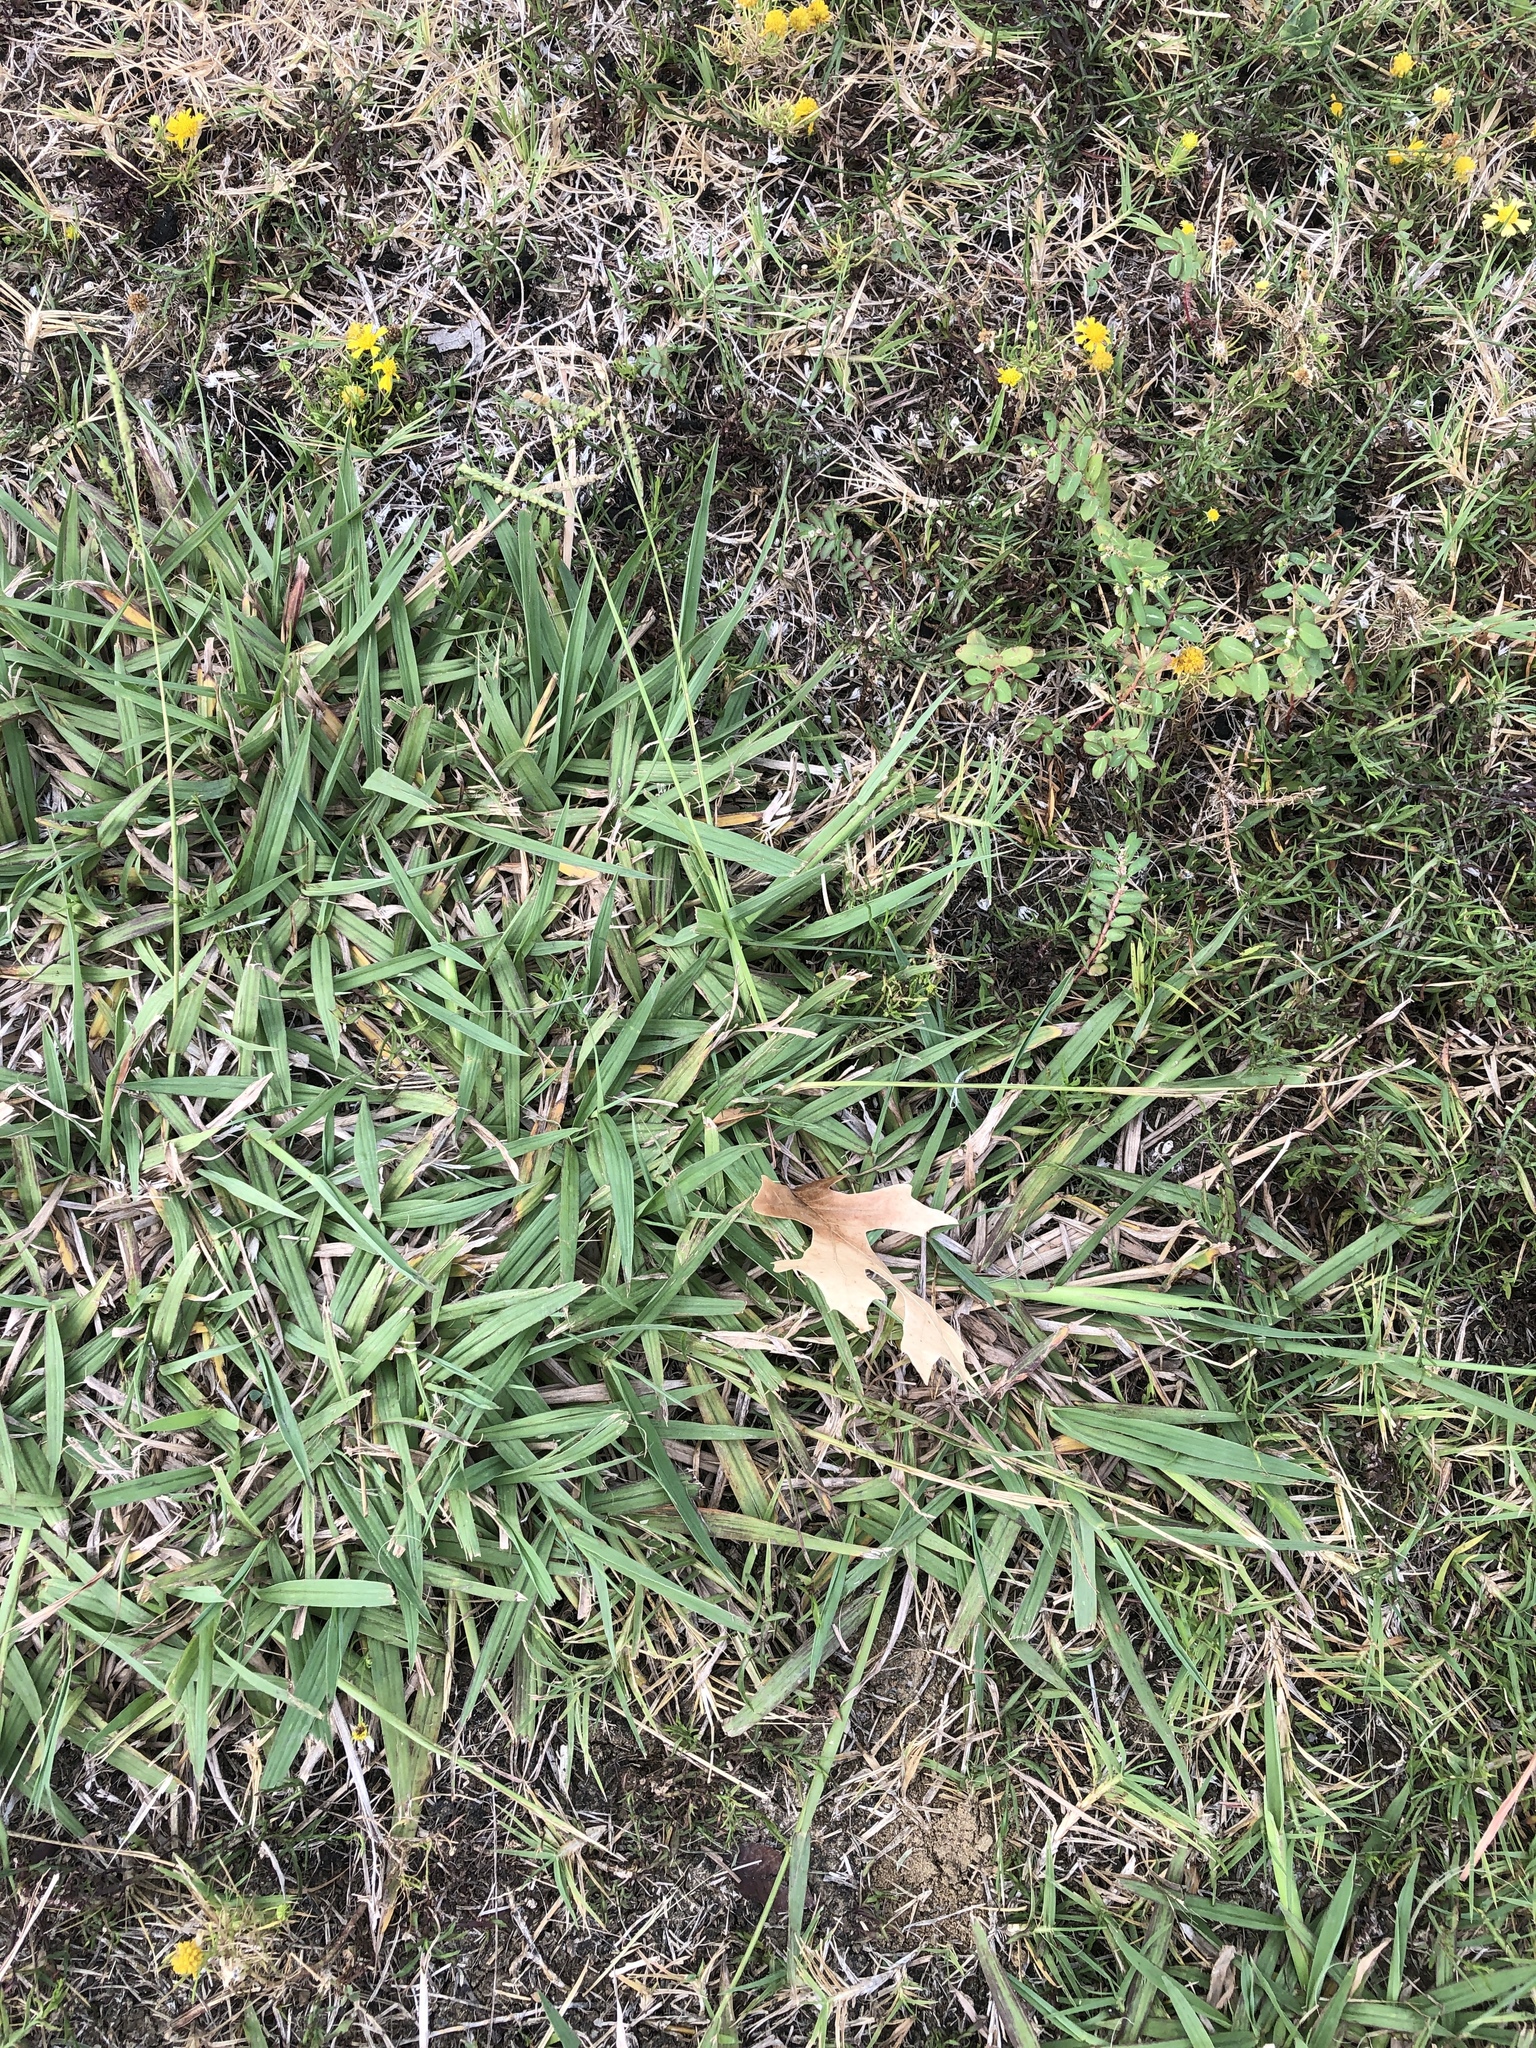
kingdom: Plantae
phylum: Tracheophyta
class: Liliopsida
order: Poales
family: Poaceae
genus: Paspalum
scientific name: Paspalum dilatatum
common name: Dallisgrass
